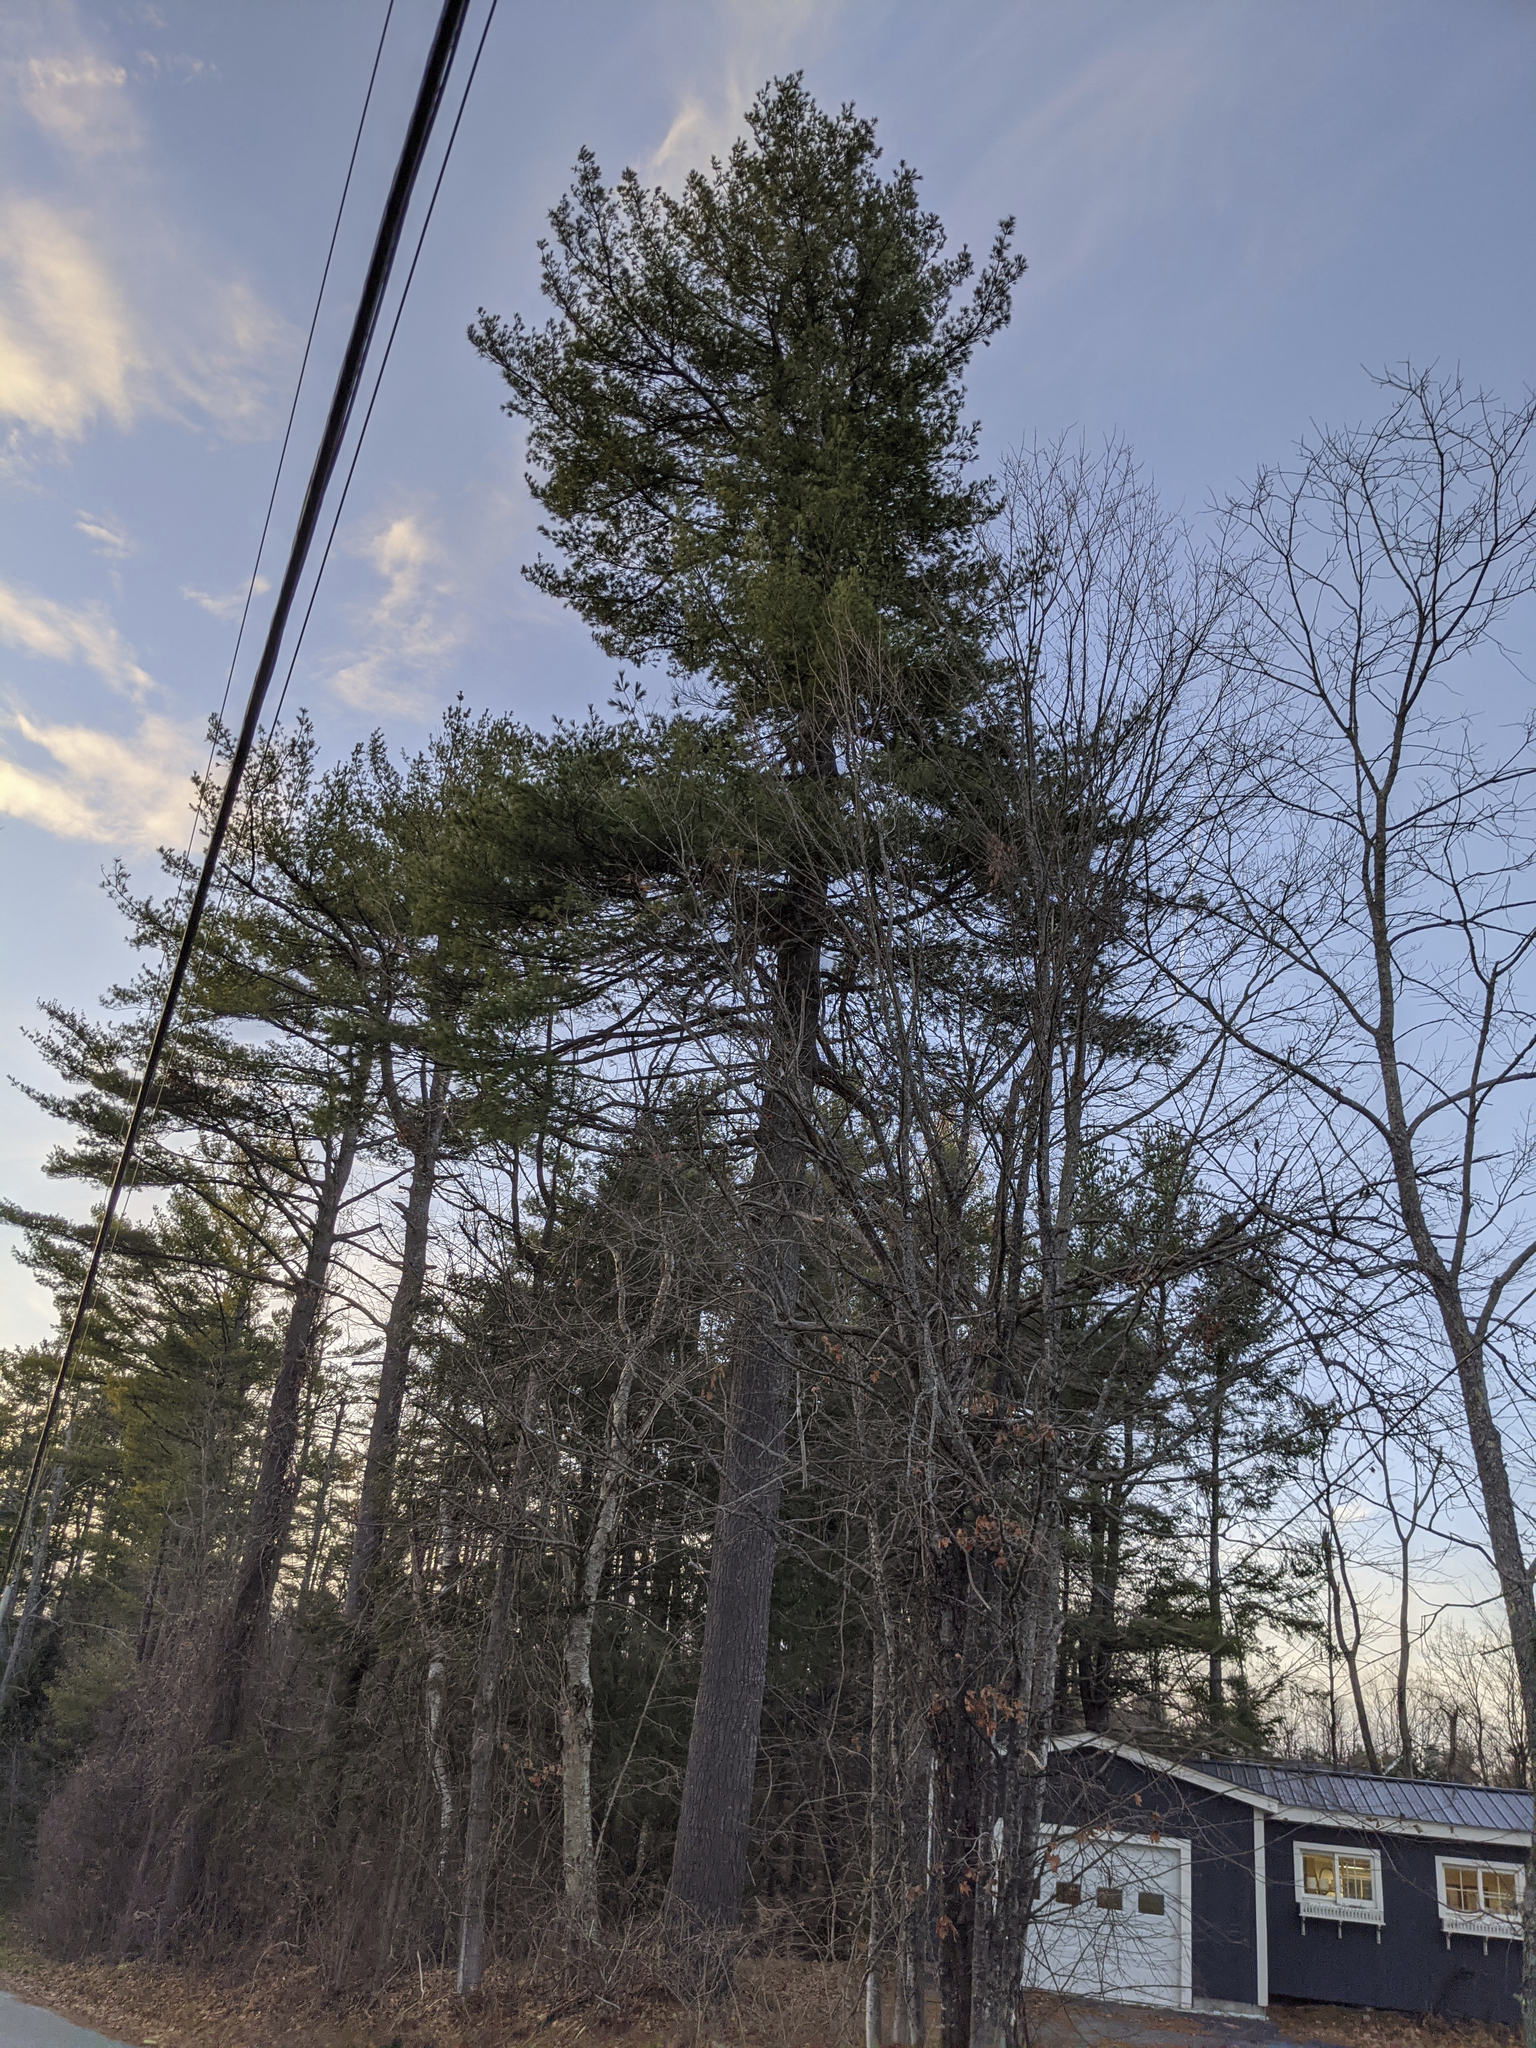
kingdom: Plantae
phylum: Tracheophyta
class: Pinopsida
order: Pinales
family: Pinaceae
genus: Pinus
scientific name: Pinus strobus
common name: Weymouth pine
